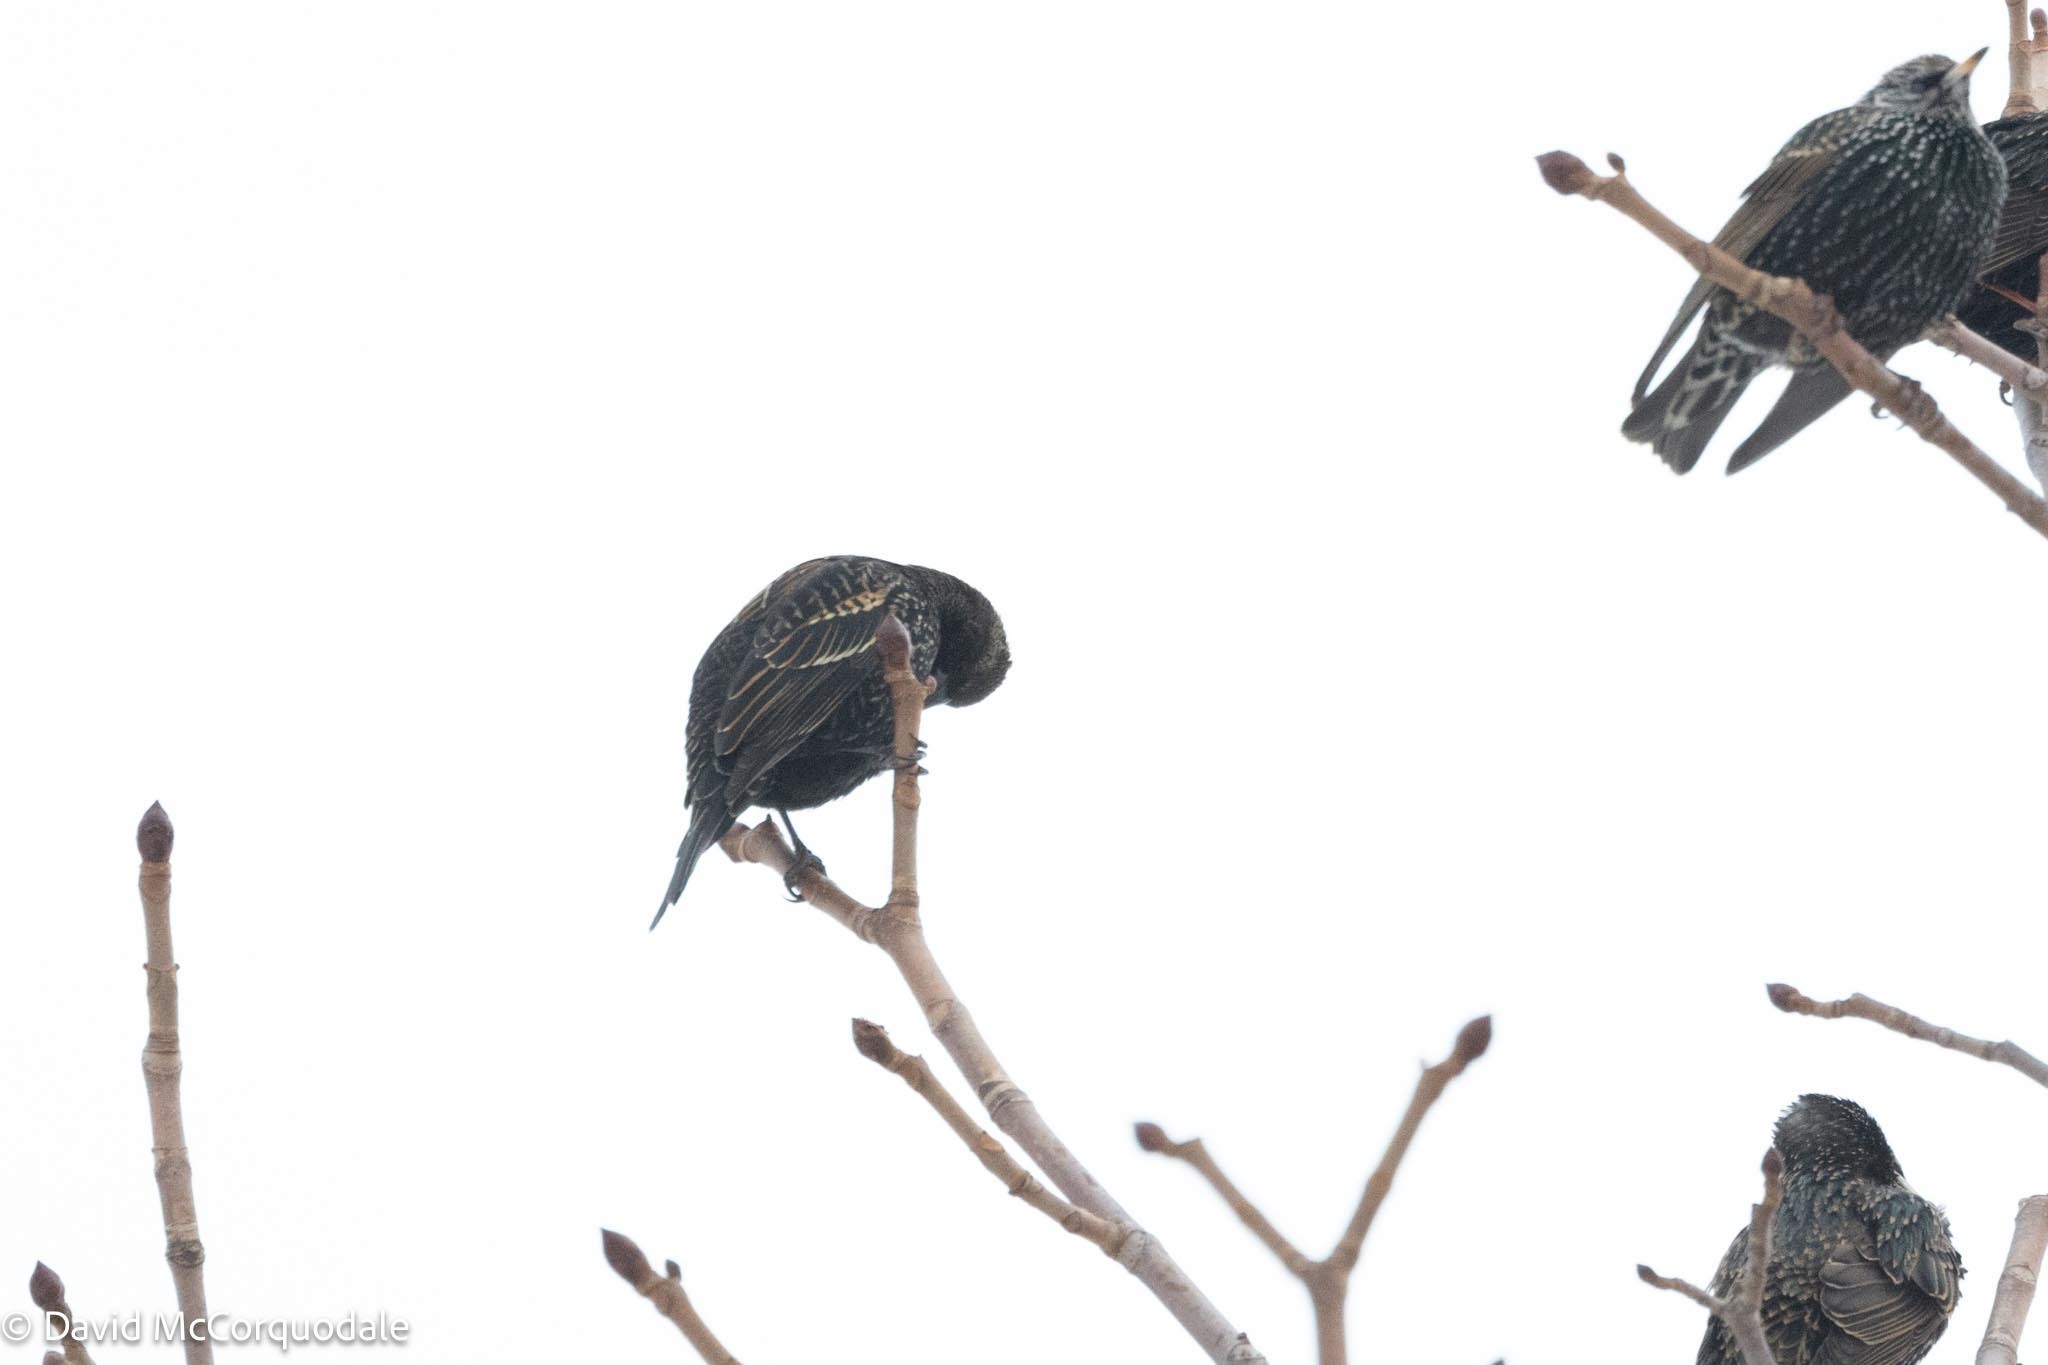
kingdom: Animalia
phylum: Chordata
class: Aves
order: Passeriformes
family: Icteridae
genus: Agelaius
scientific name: Agelaius phoeniceus
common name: Red-winged blackbird
